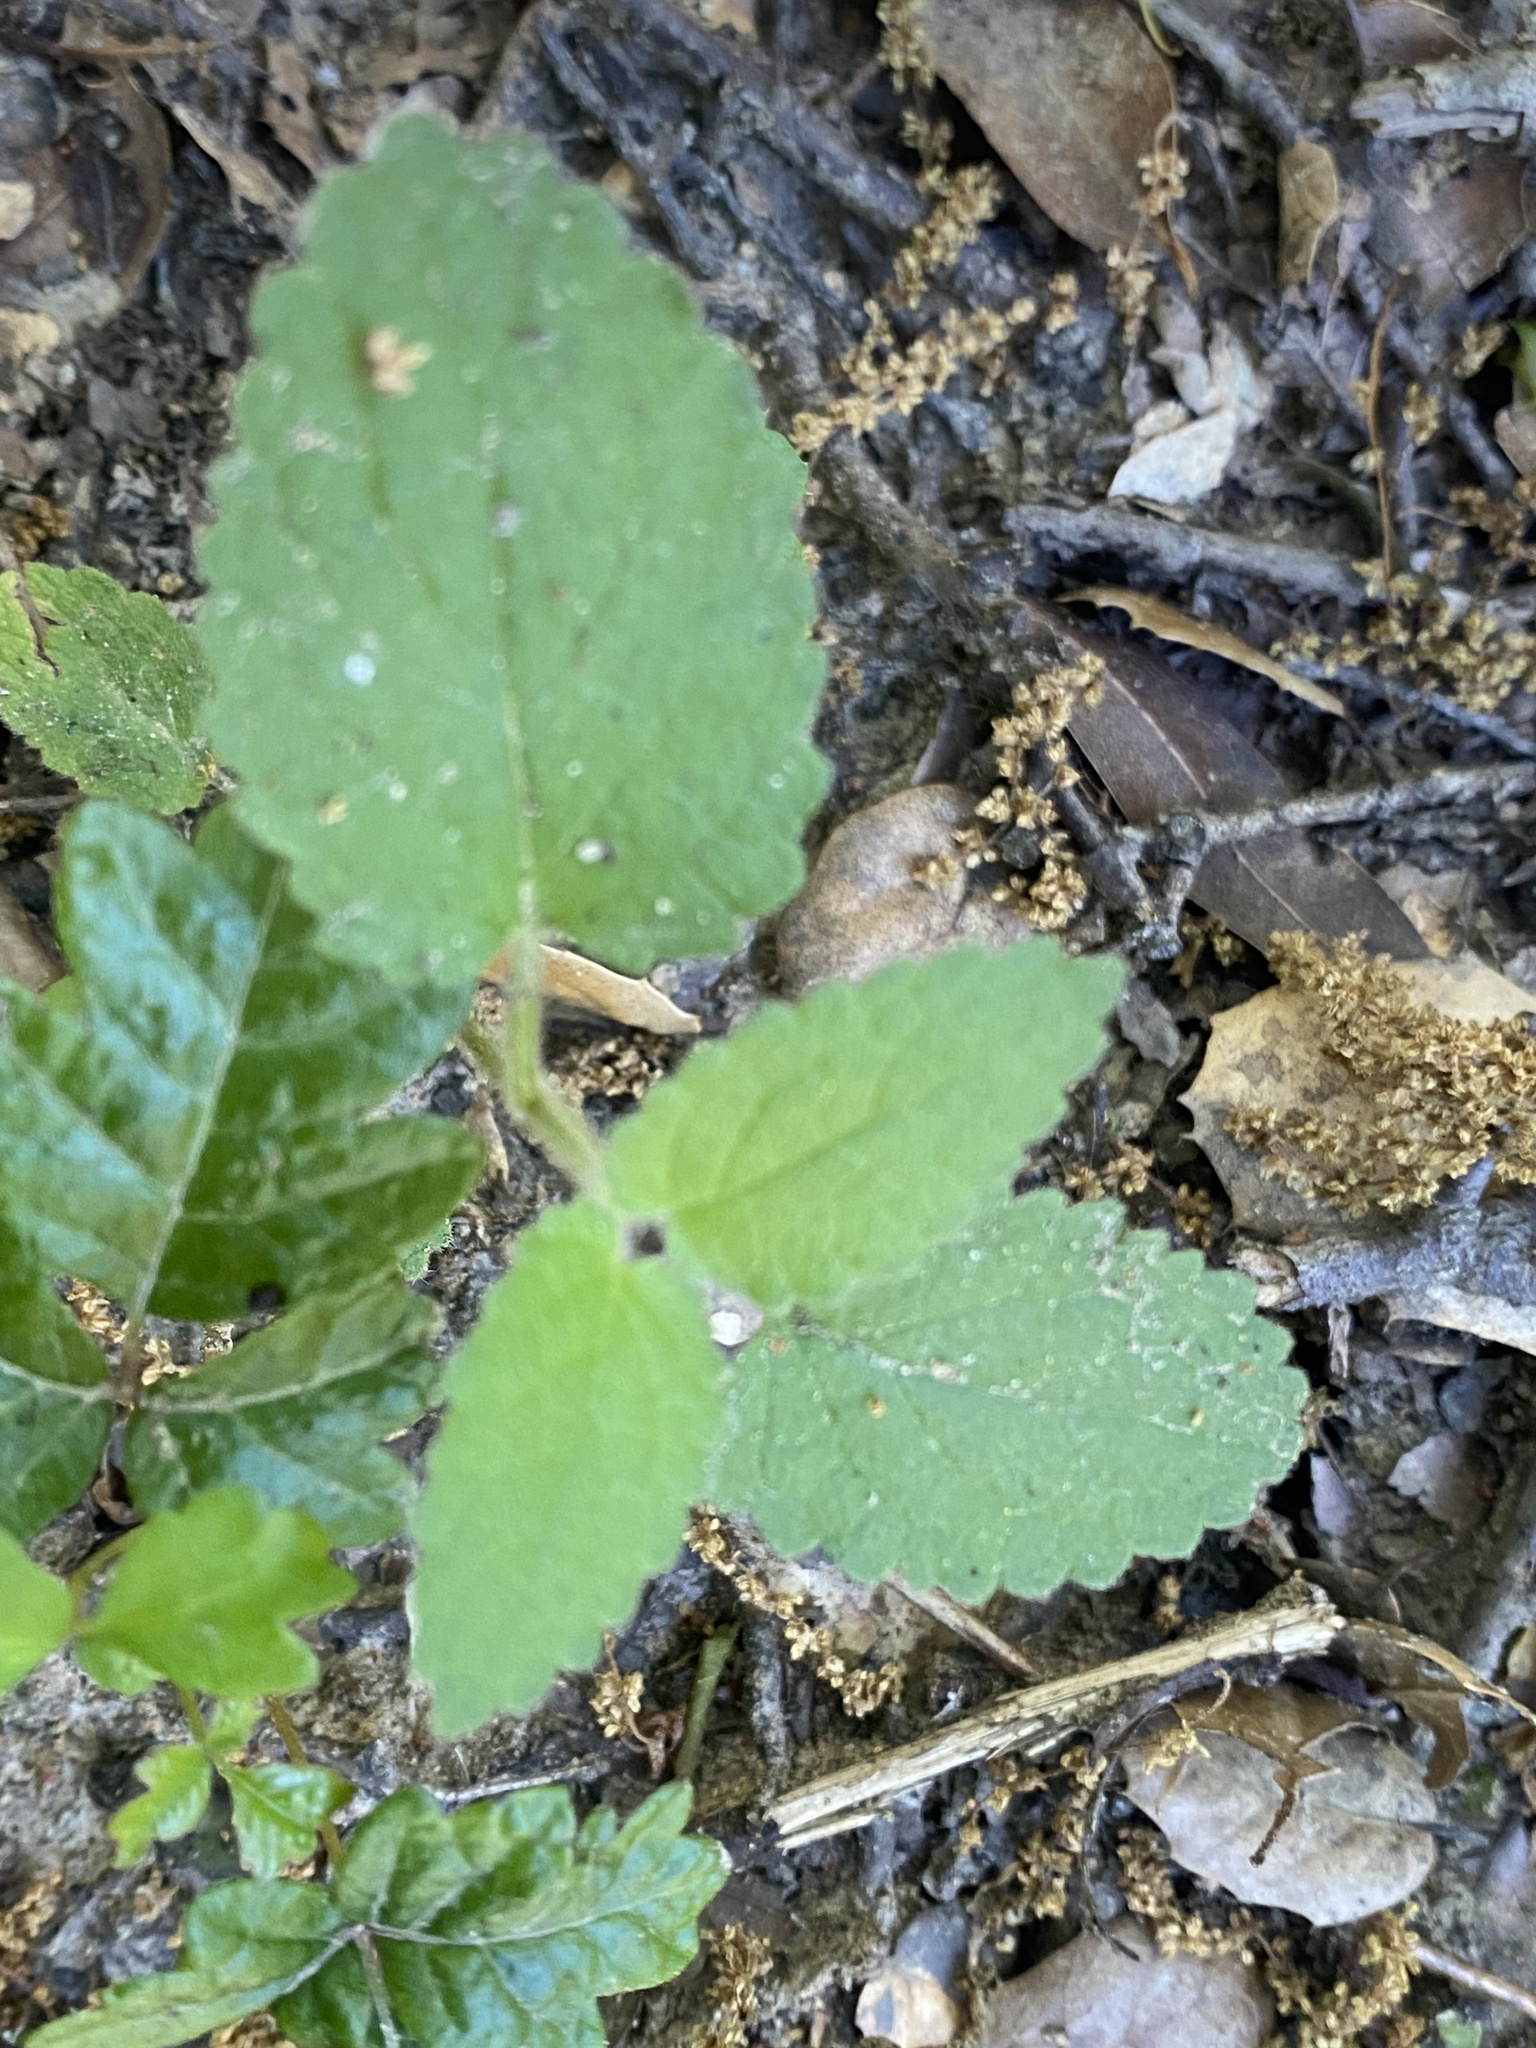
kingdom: Plantae
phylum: Tracheophyta
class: Magnoliopsida
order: Lamiales
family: Lamiaceae
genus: Stachys
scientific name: Stachys rigida
